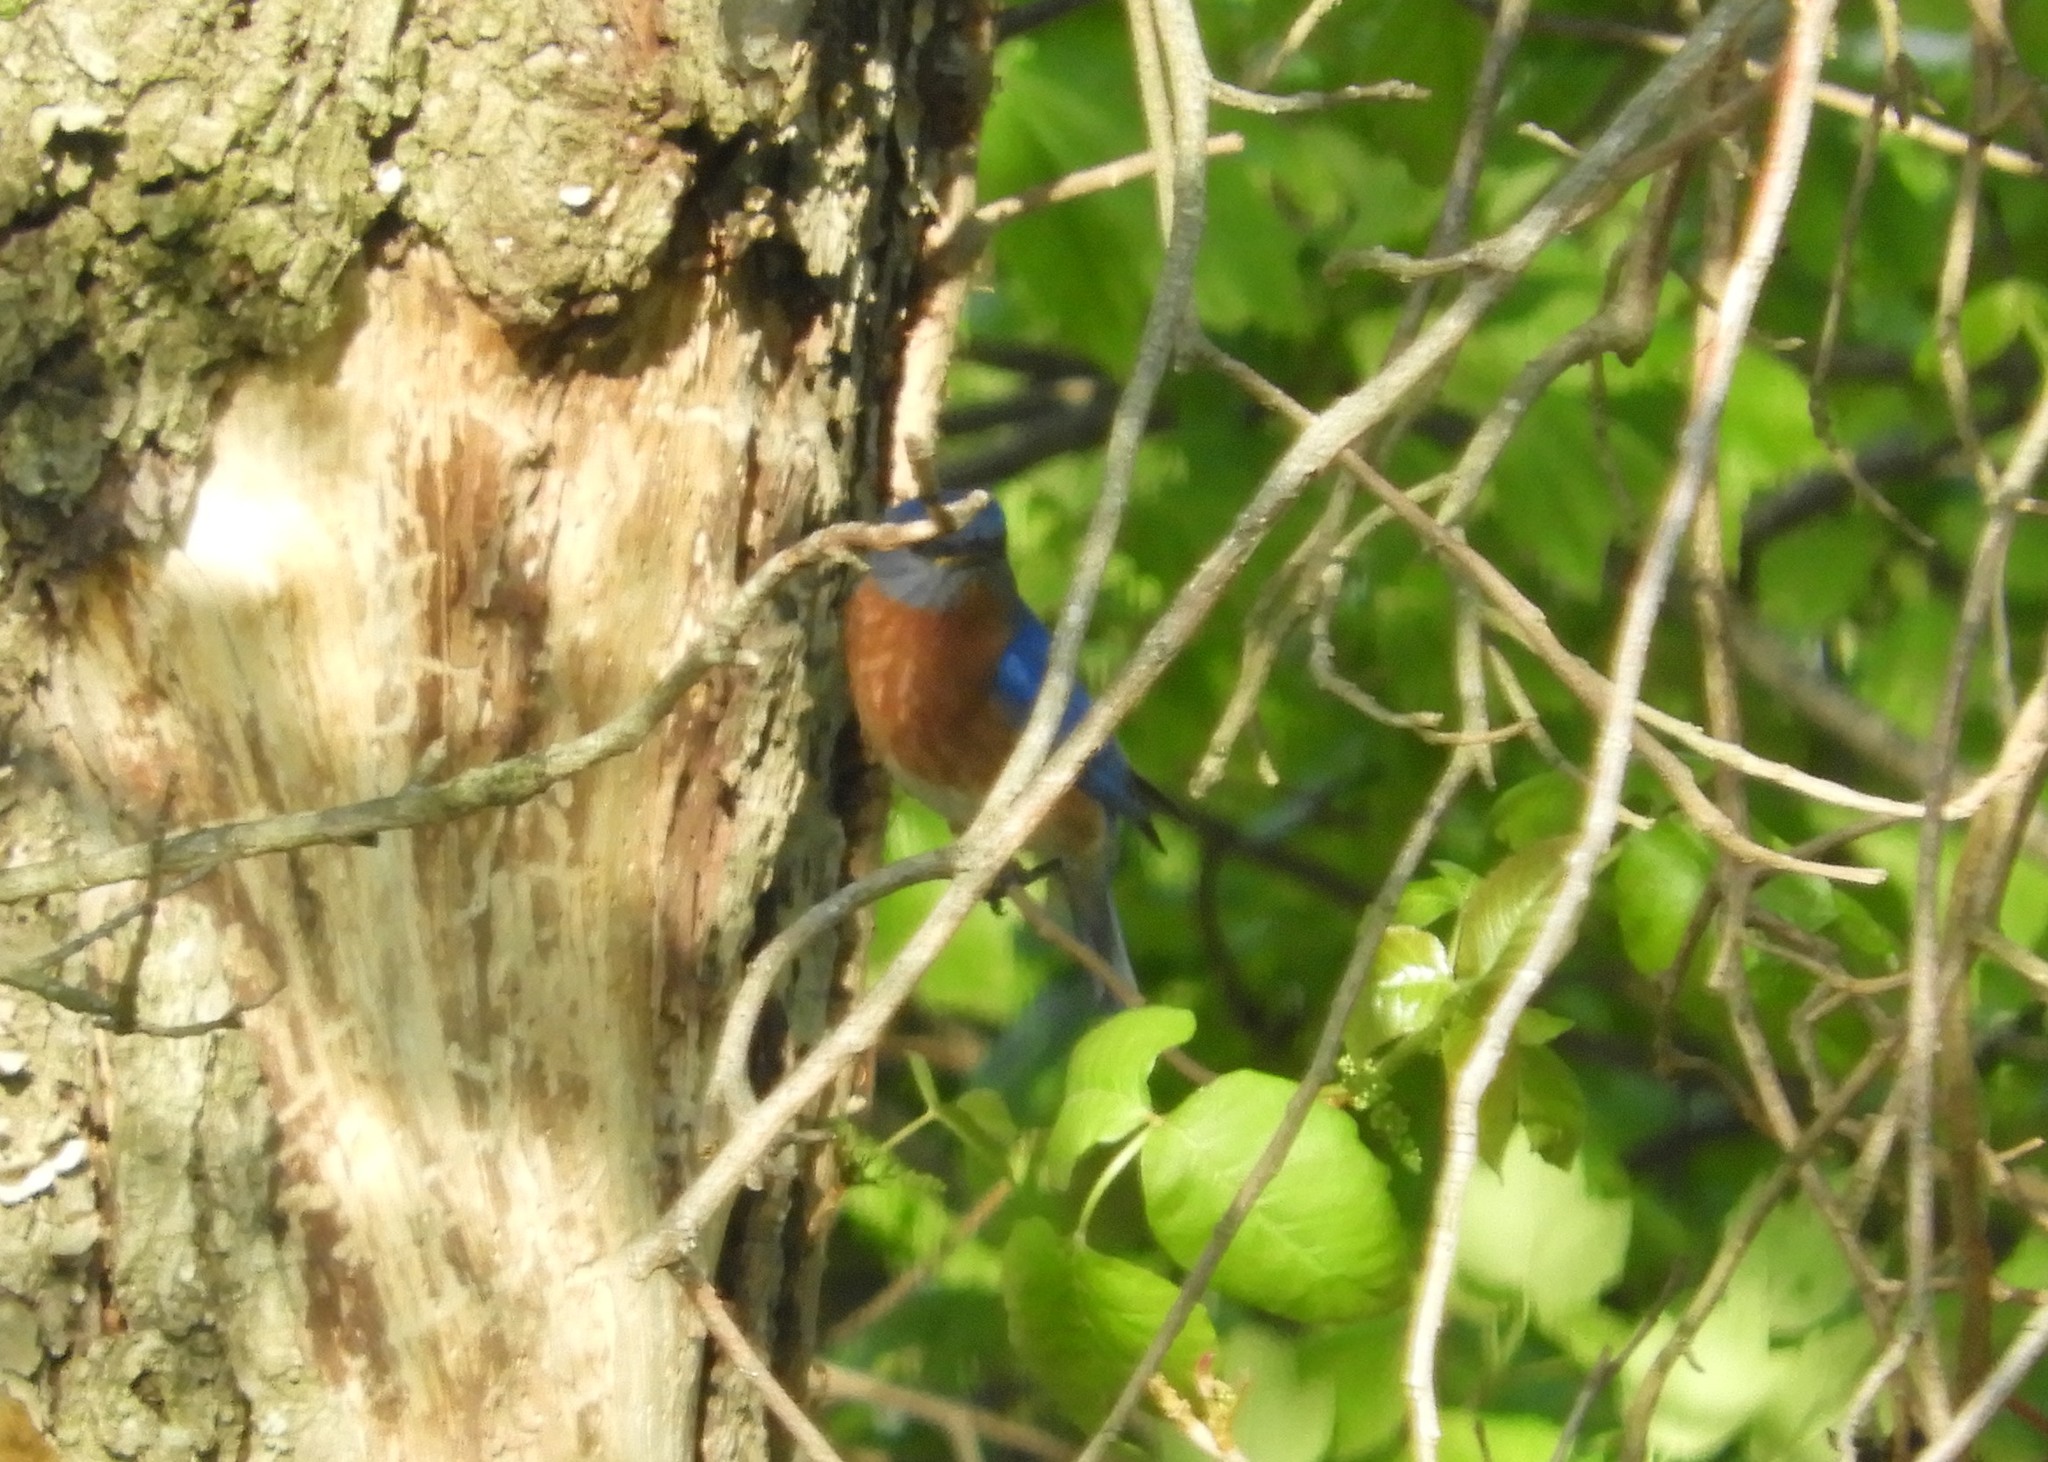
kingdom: Animalia
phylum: Chordata
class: Aves
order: Passeriformes
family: Turdidae
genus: Sialia
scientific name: Sialia sialis
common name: Eastern bluebird
